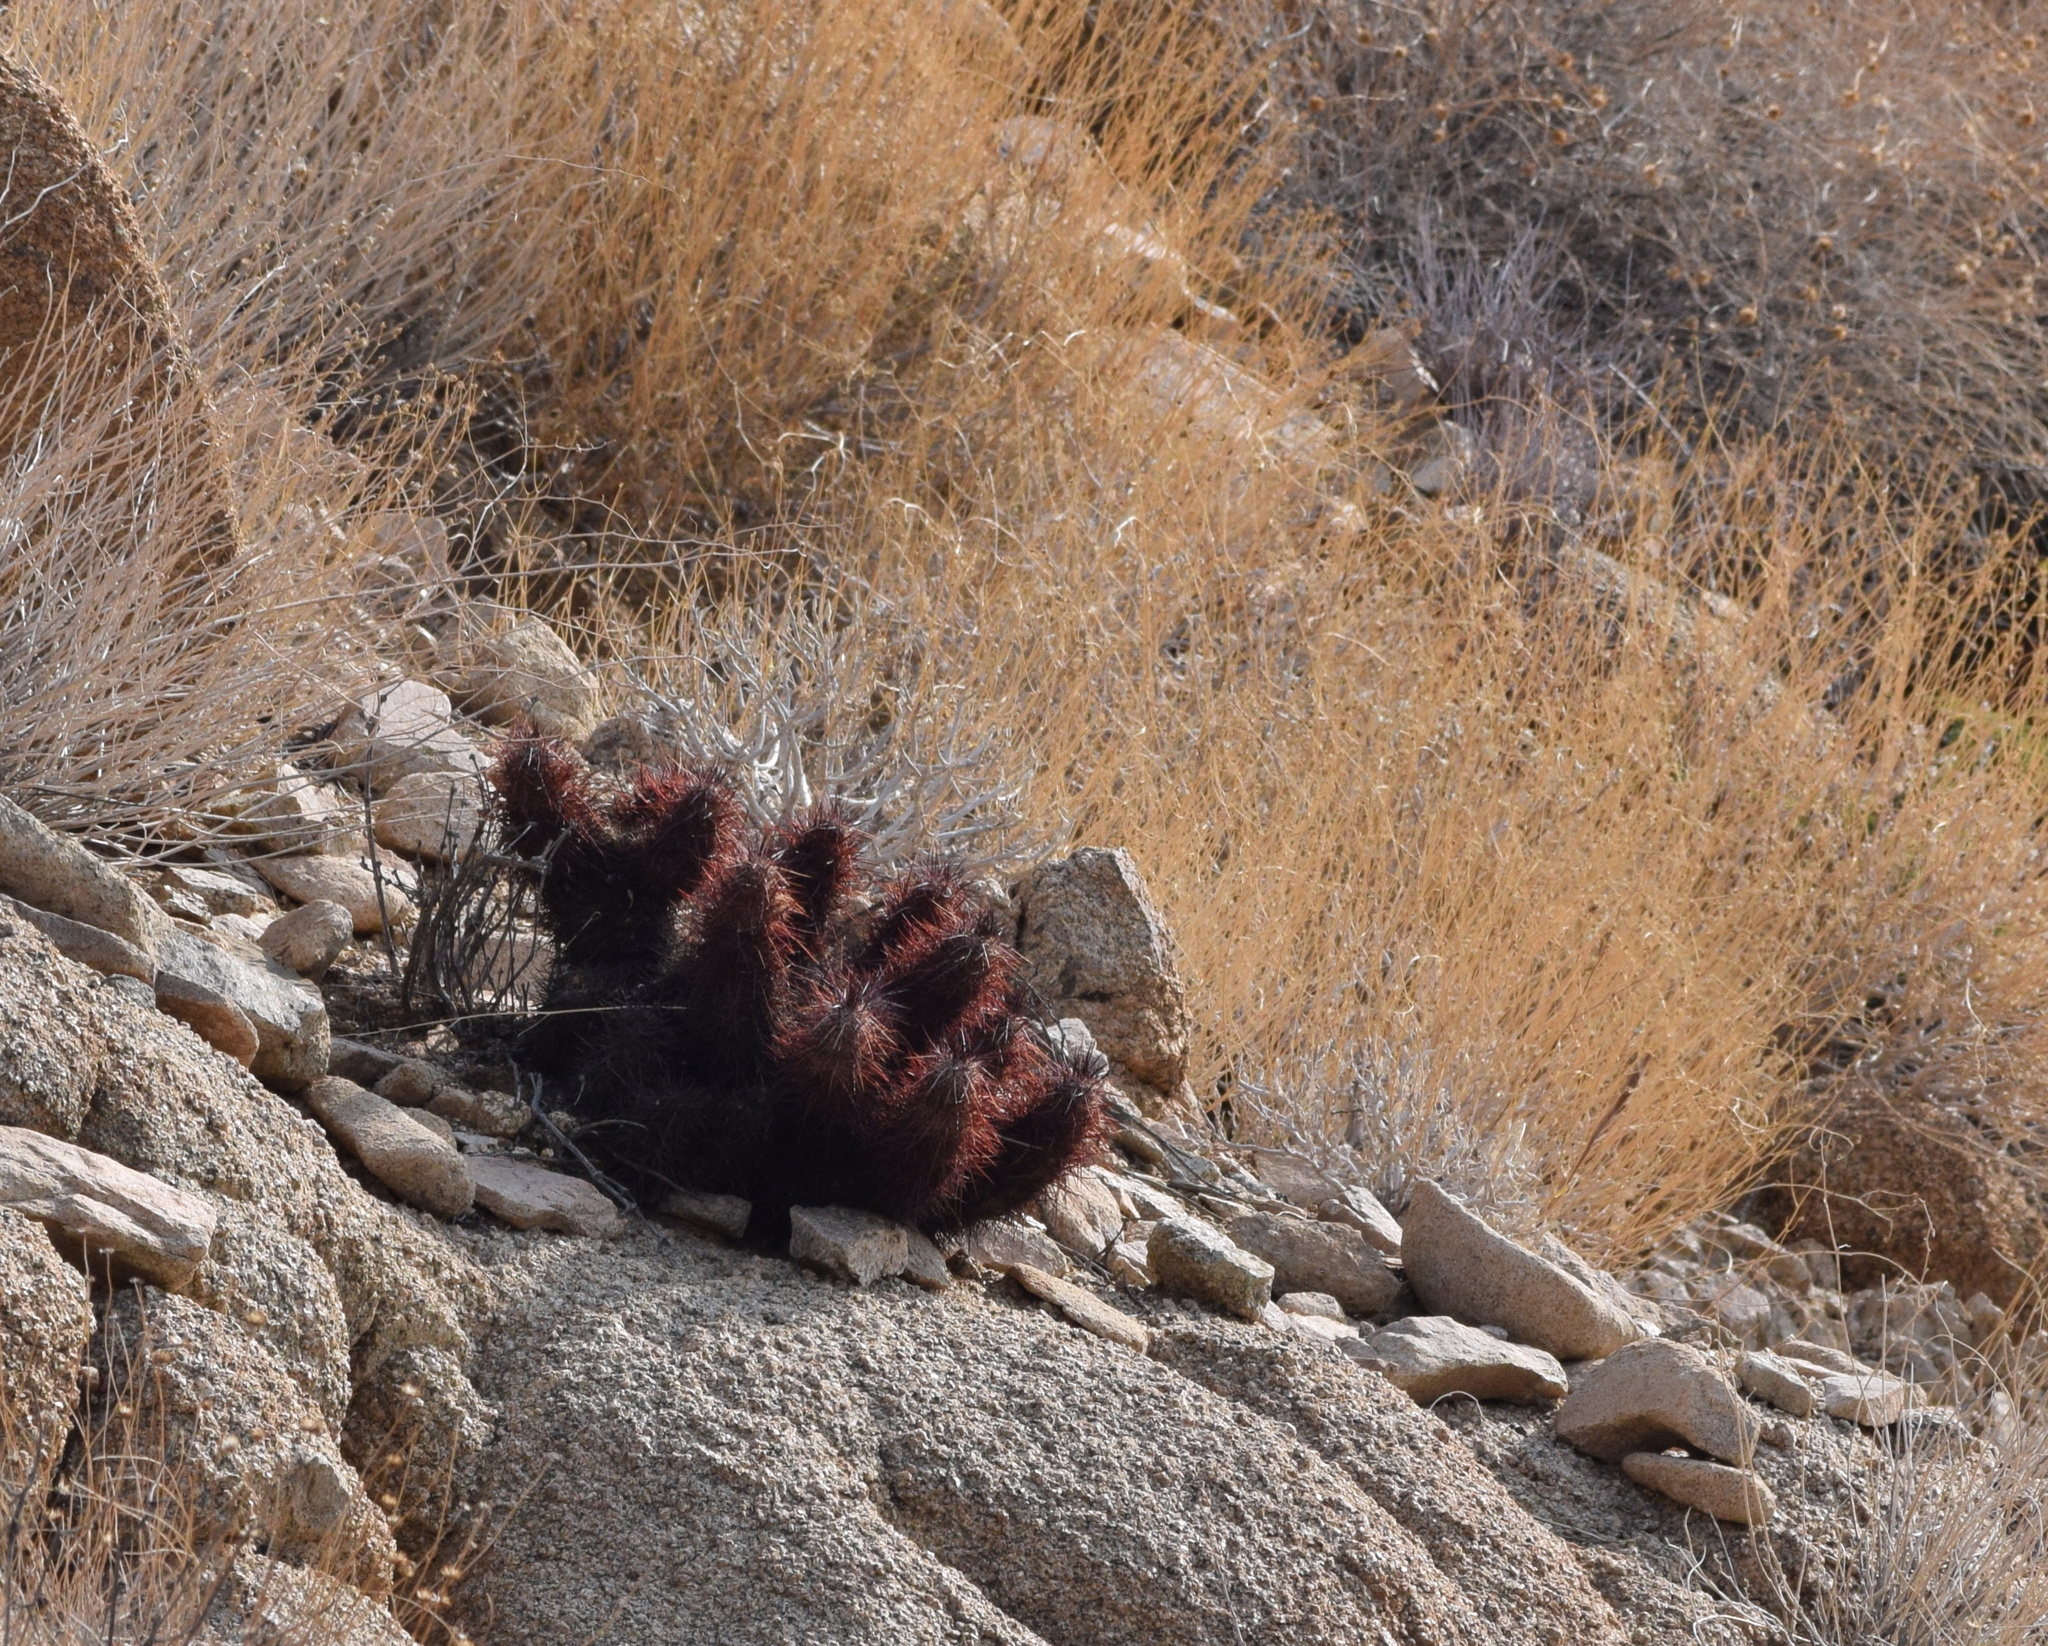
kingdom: Plantae
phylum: Tracheophyta
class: Magnoliopsida
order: Caryophyllales
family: Cactaceae
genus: Echinocereus
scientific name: Echinocereus engelmannii
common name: Engelmann's hedgehog cactus
